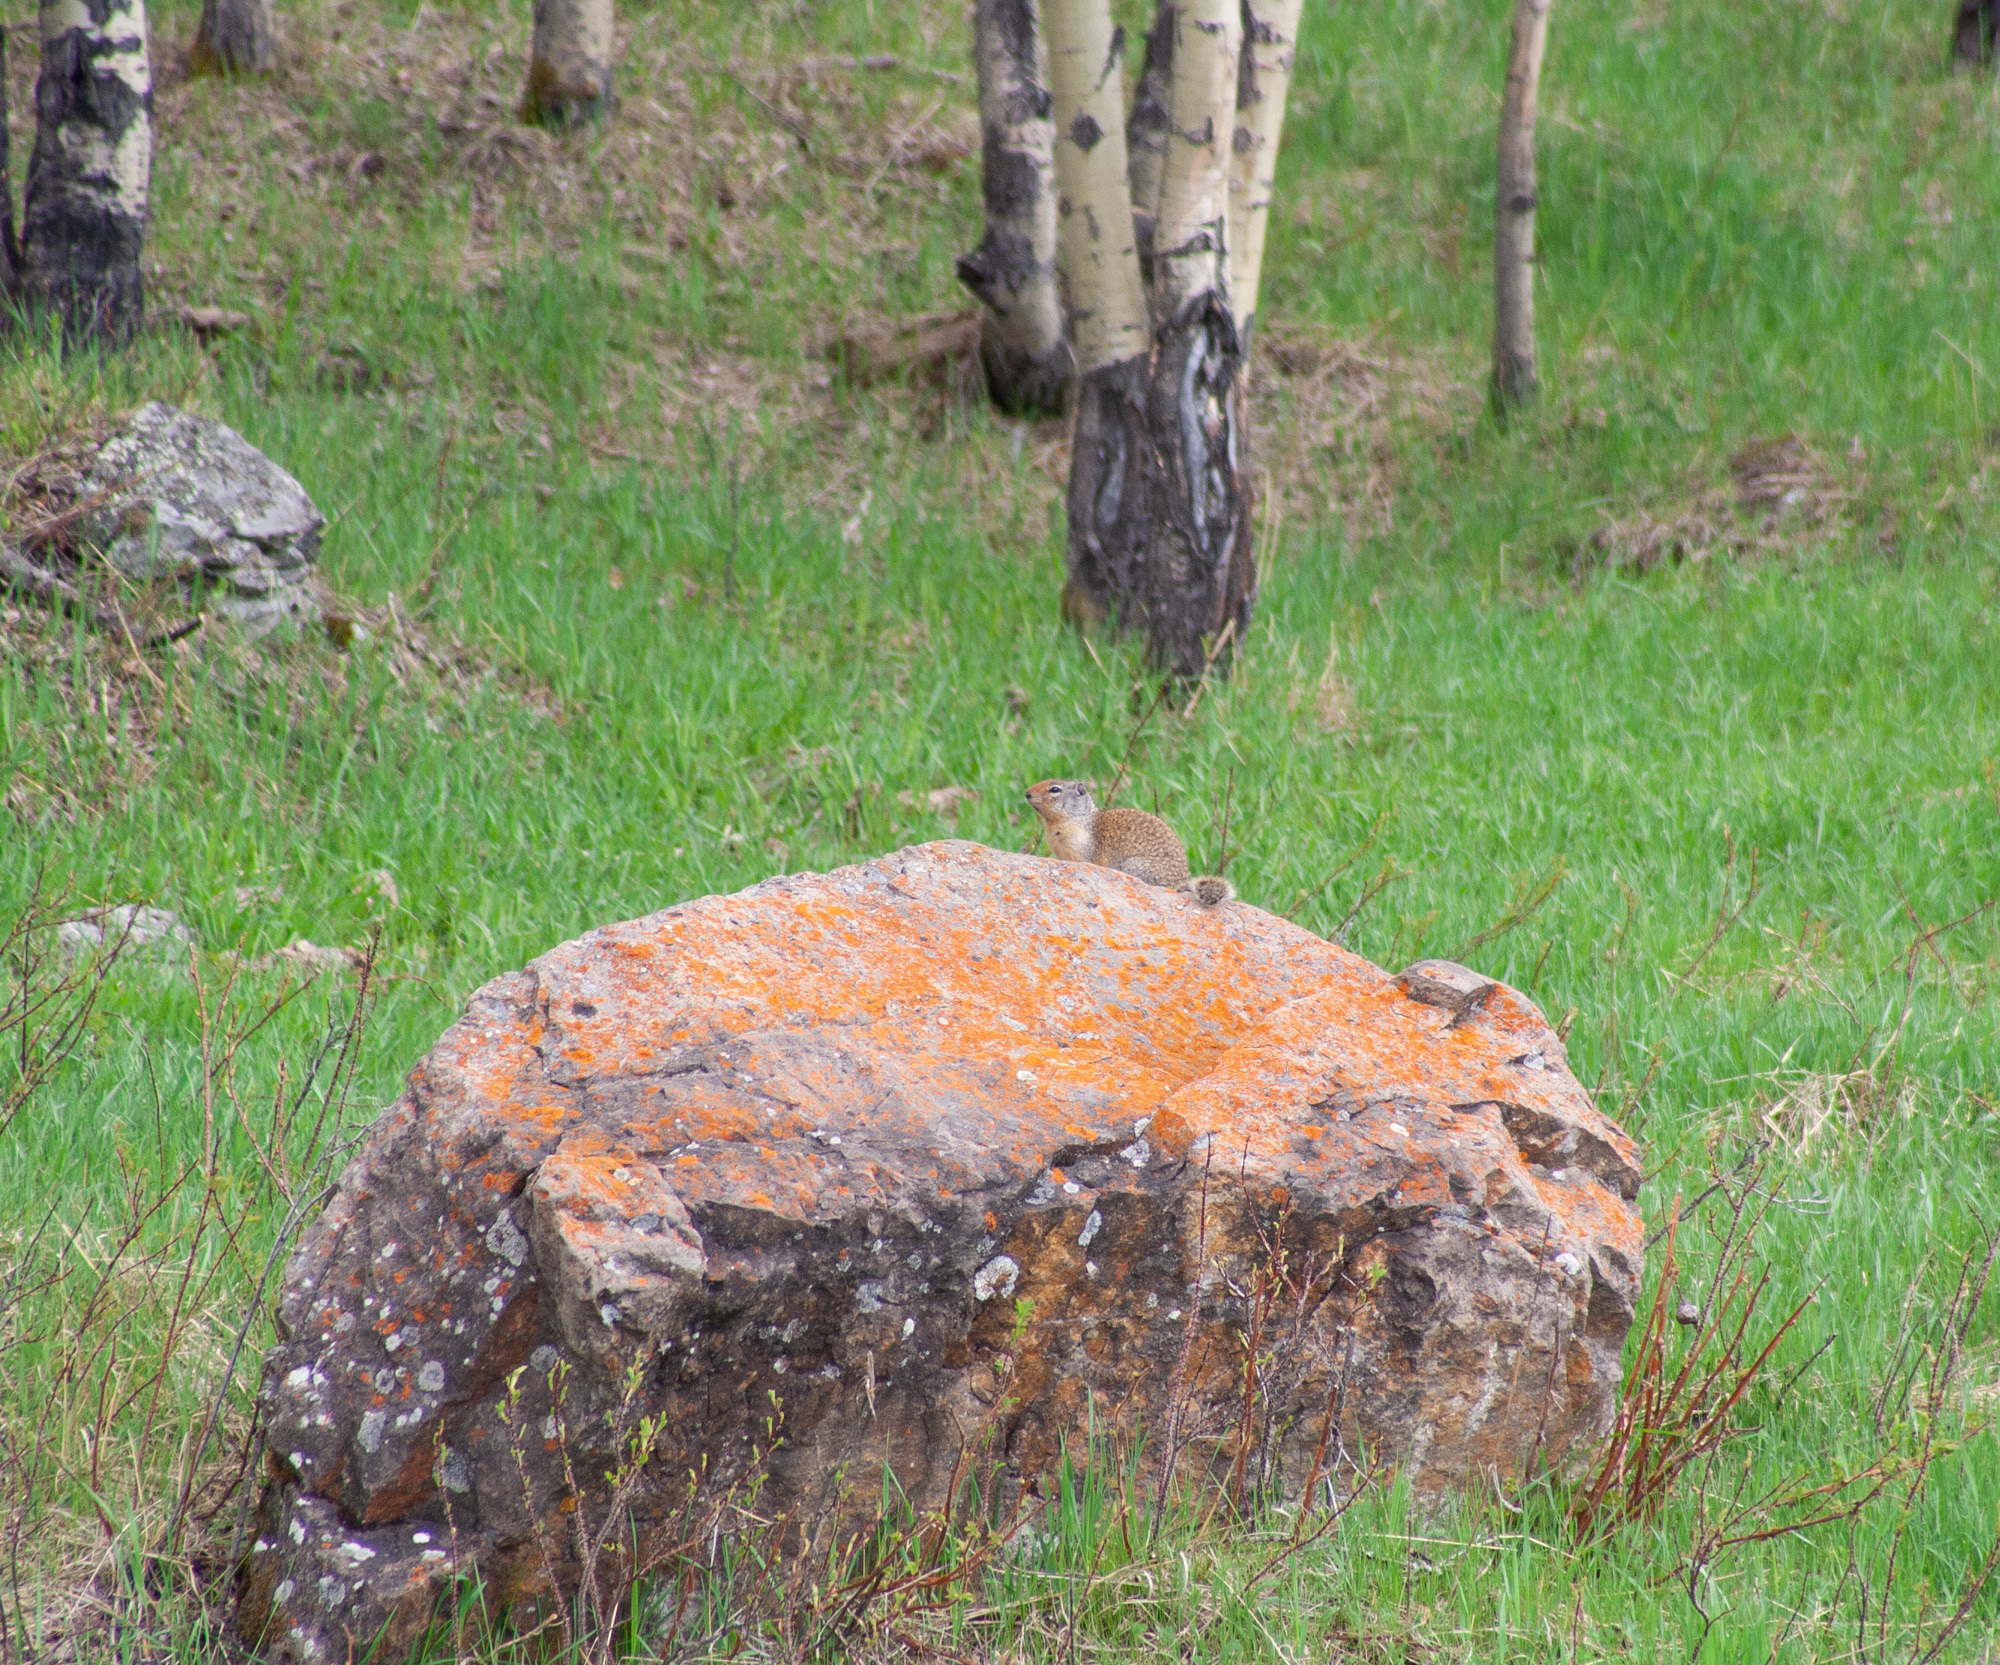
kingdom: Animalia
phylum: Chordata
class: Mammalia
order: Rodentia
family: Sciuridae
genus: Urocitellus
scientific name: Urocitellus columbianus
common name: Columbian ground squirrel
